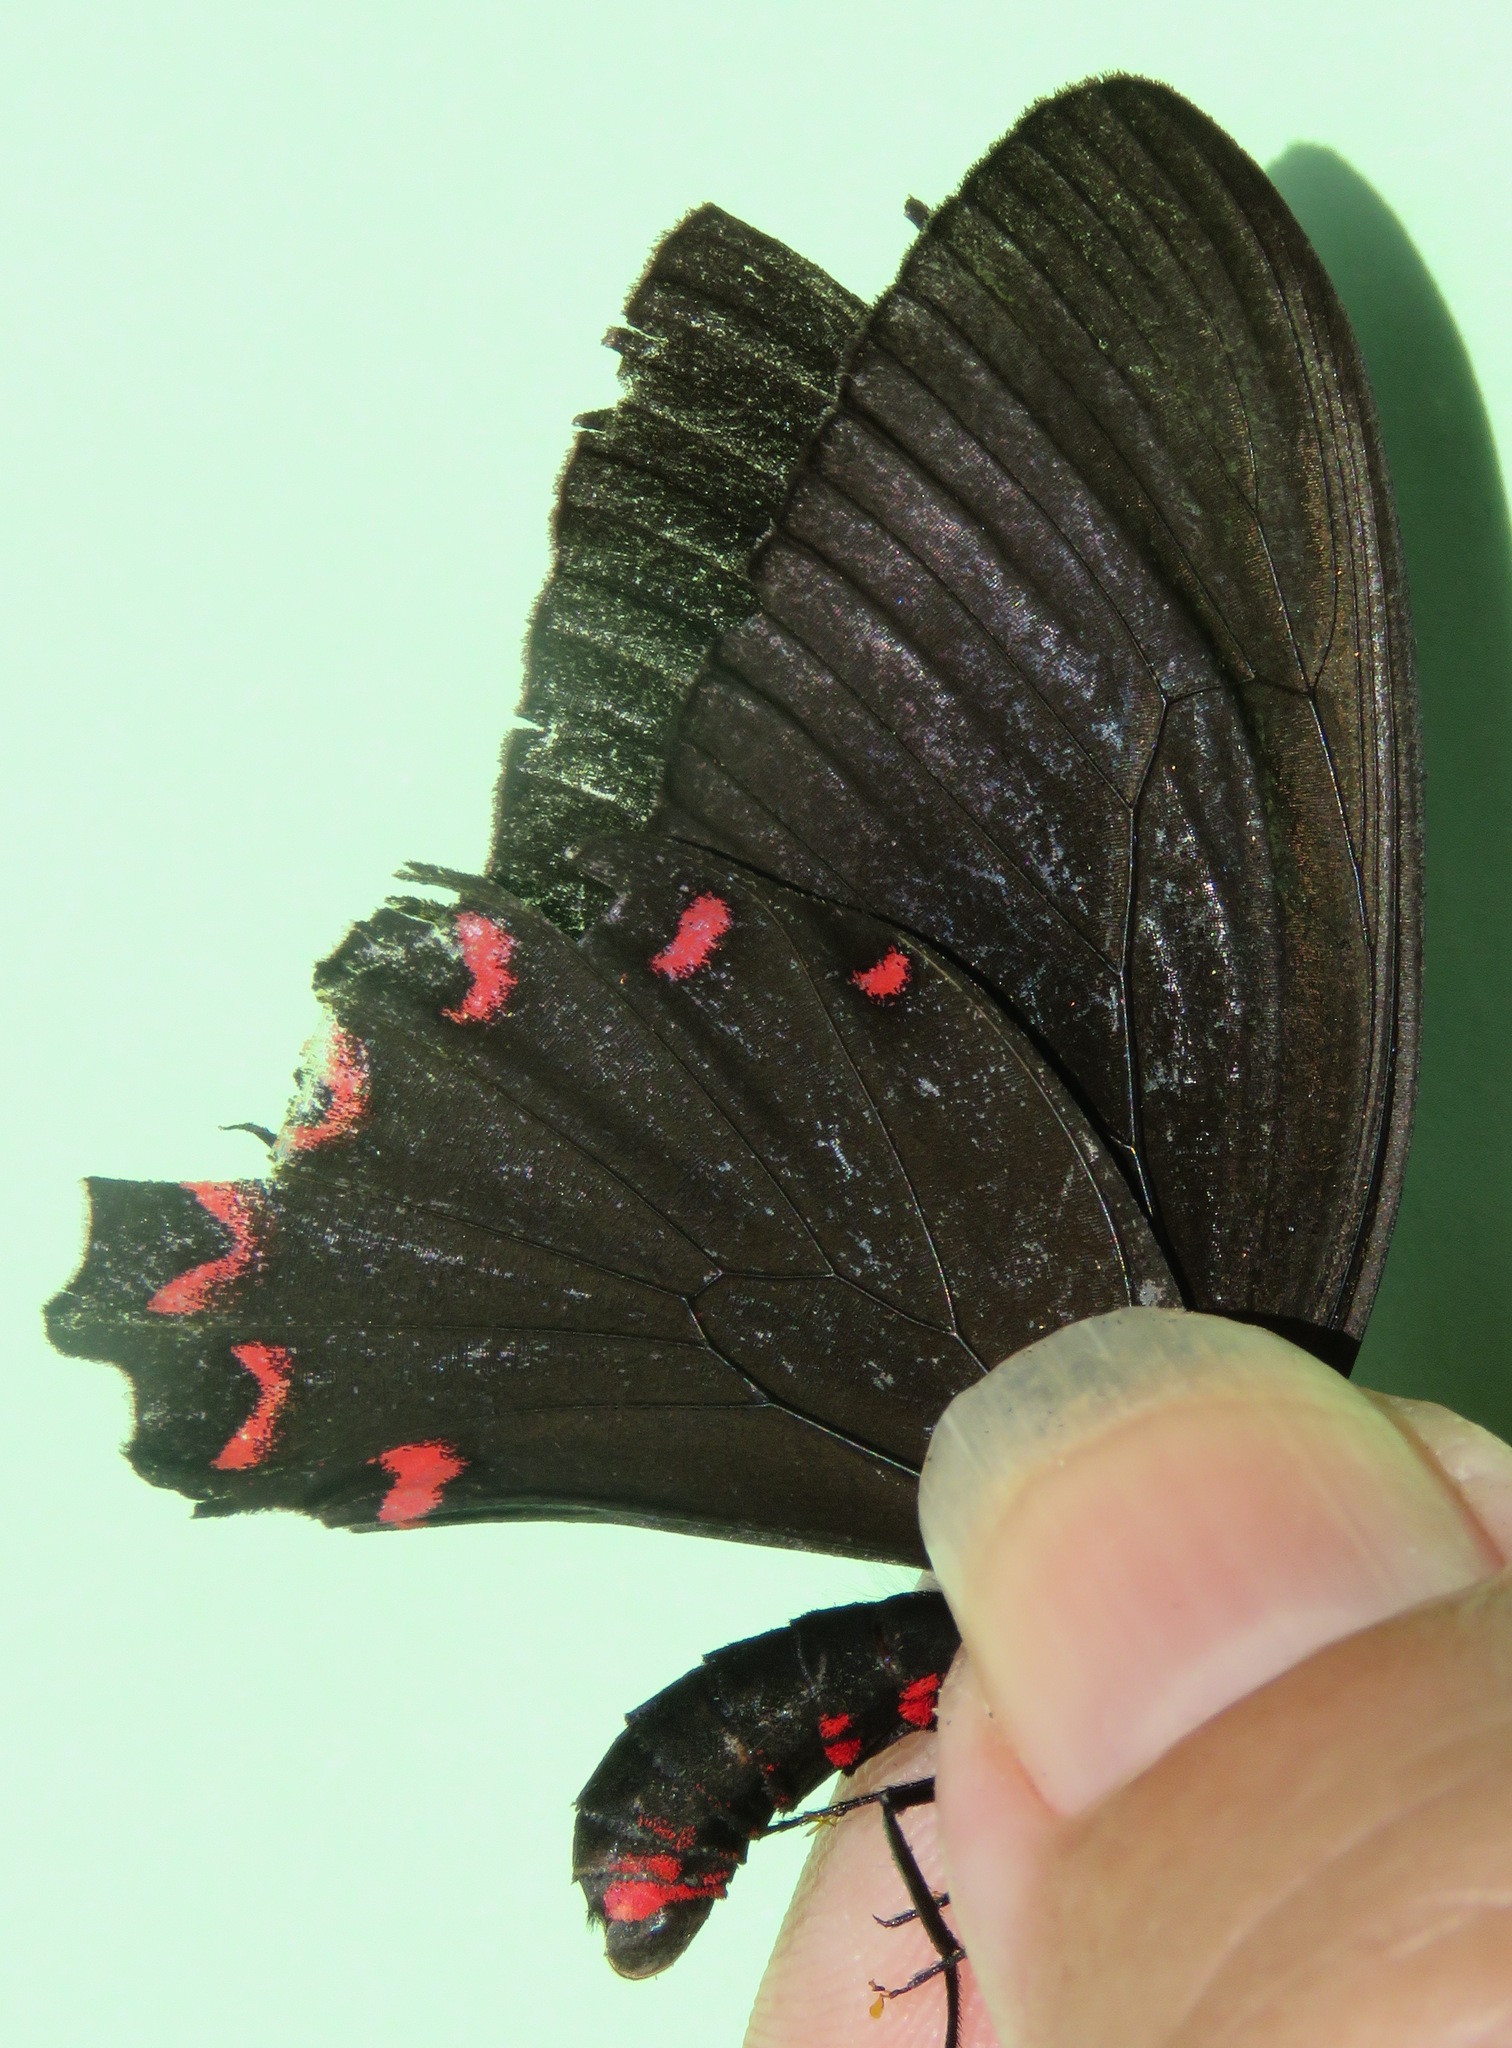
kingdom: Animalia
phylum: Arthropoda
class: Insecta
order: Lepidoptera
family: Papilionidae
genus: Parides
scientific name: Parides montezuma
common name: Montezuma's cattleheart
